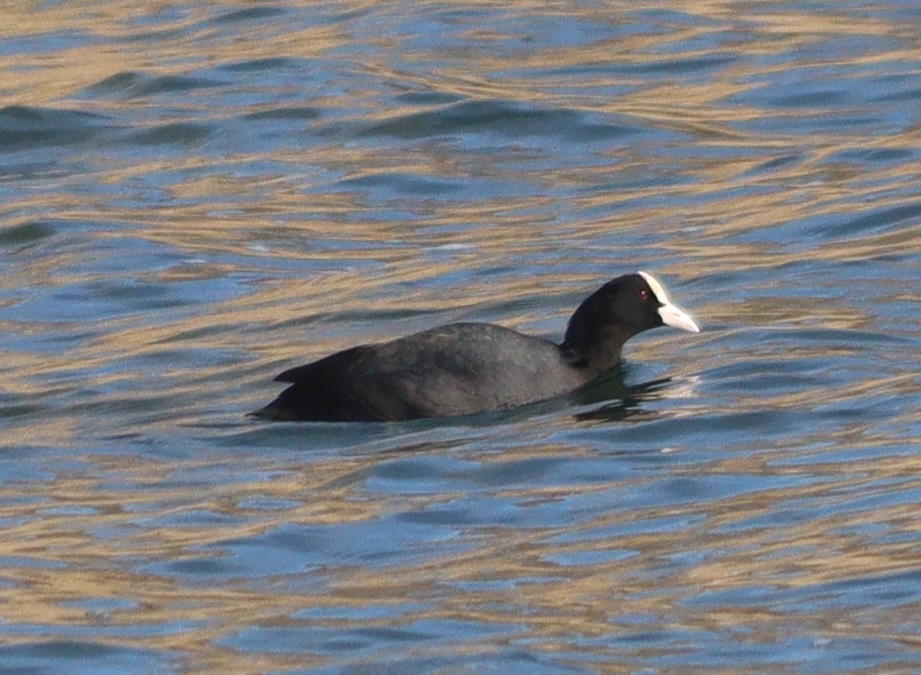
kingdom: Animalia
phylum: Chordata
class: Aves
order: Gruiformes
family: Rallidae
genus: Fulica
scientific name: Fulica atra
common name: Eurasian coot
